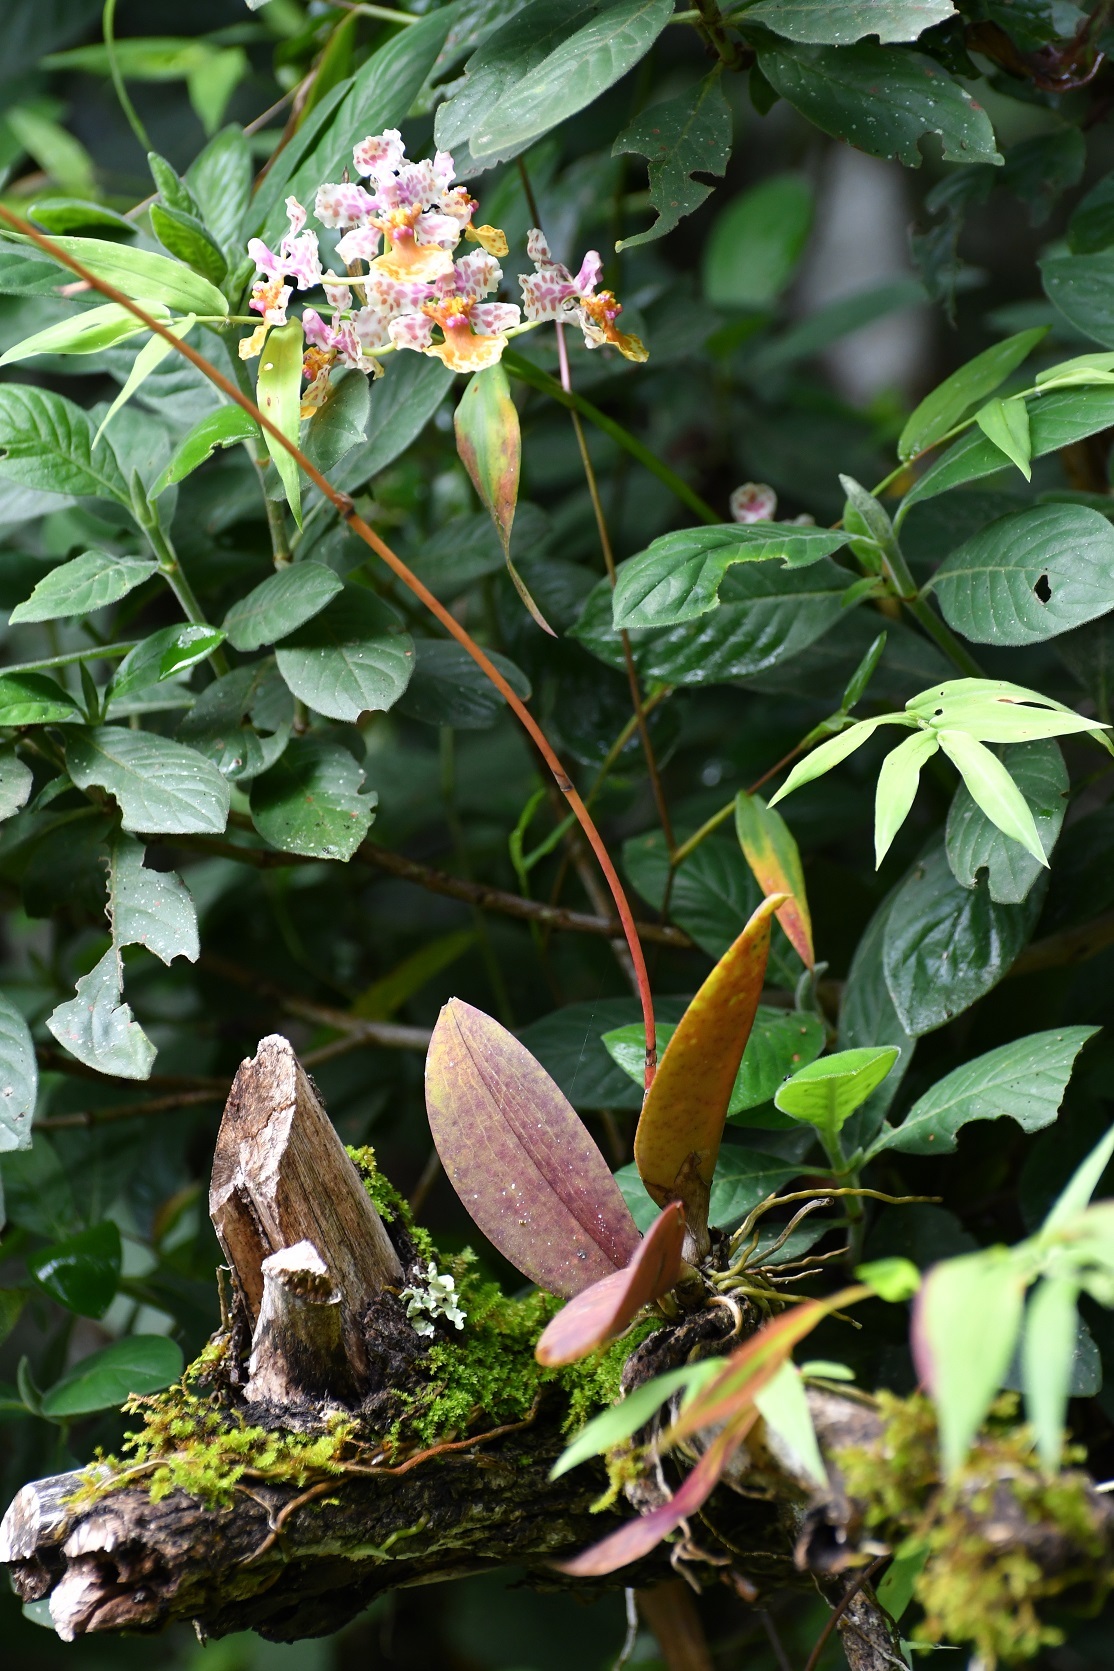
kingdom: Plantae
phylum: Tracheophyta
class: Liliopsida
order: Asparagales
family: Orchidaceae
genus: Trichocentrum
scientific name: Trichocentrum andreanum
